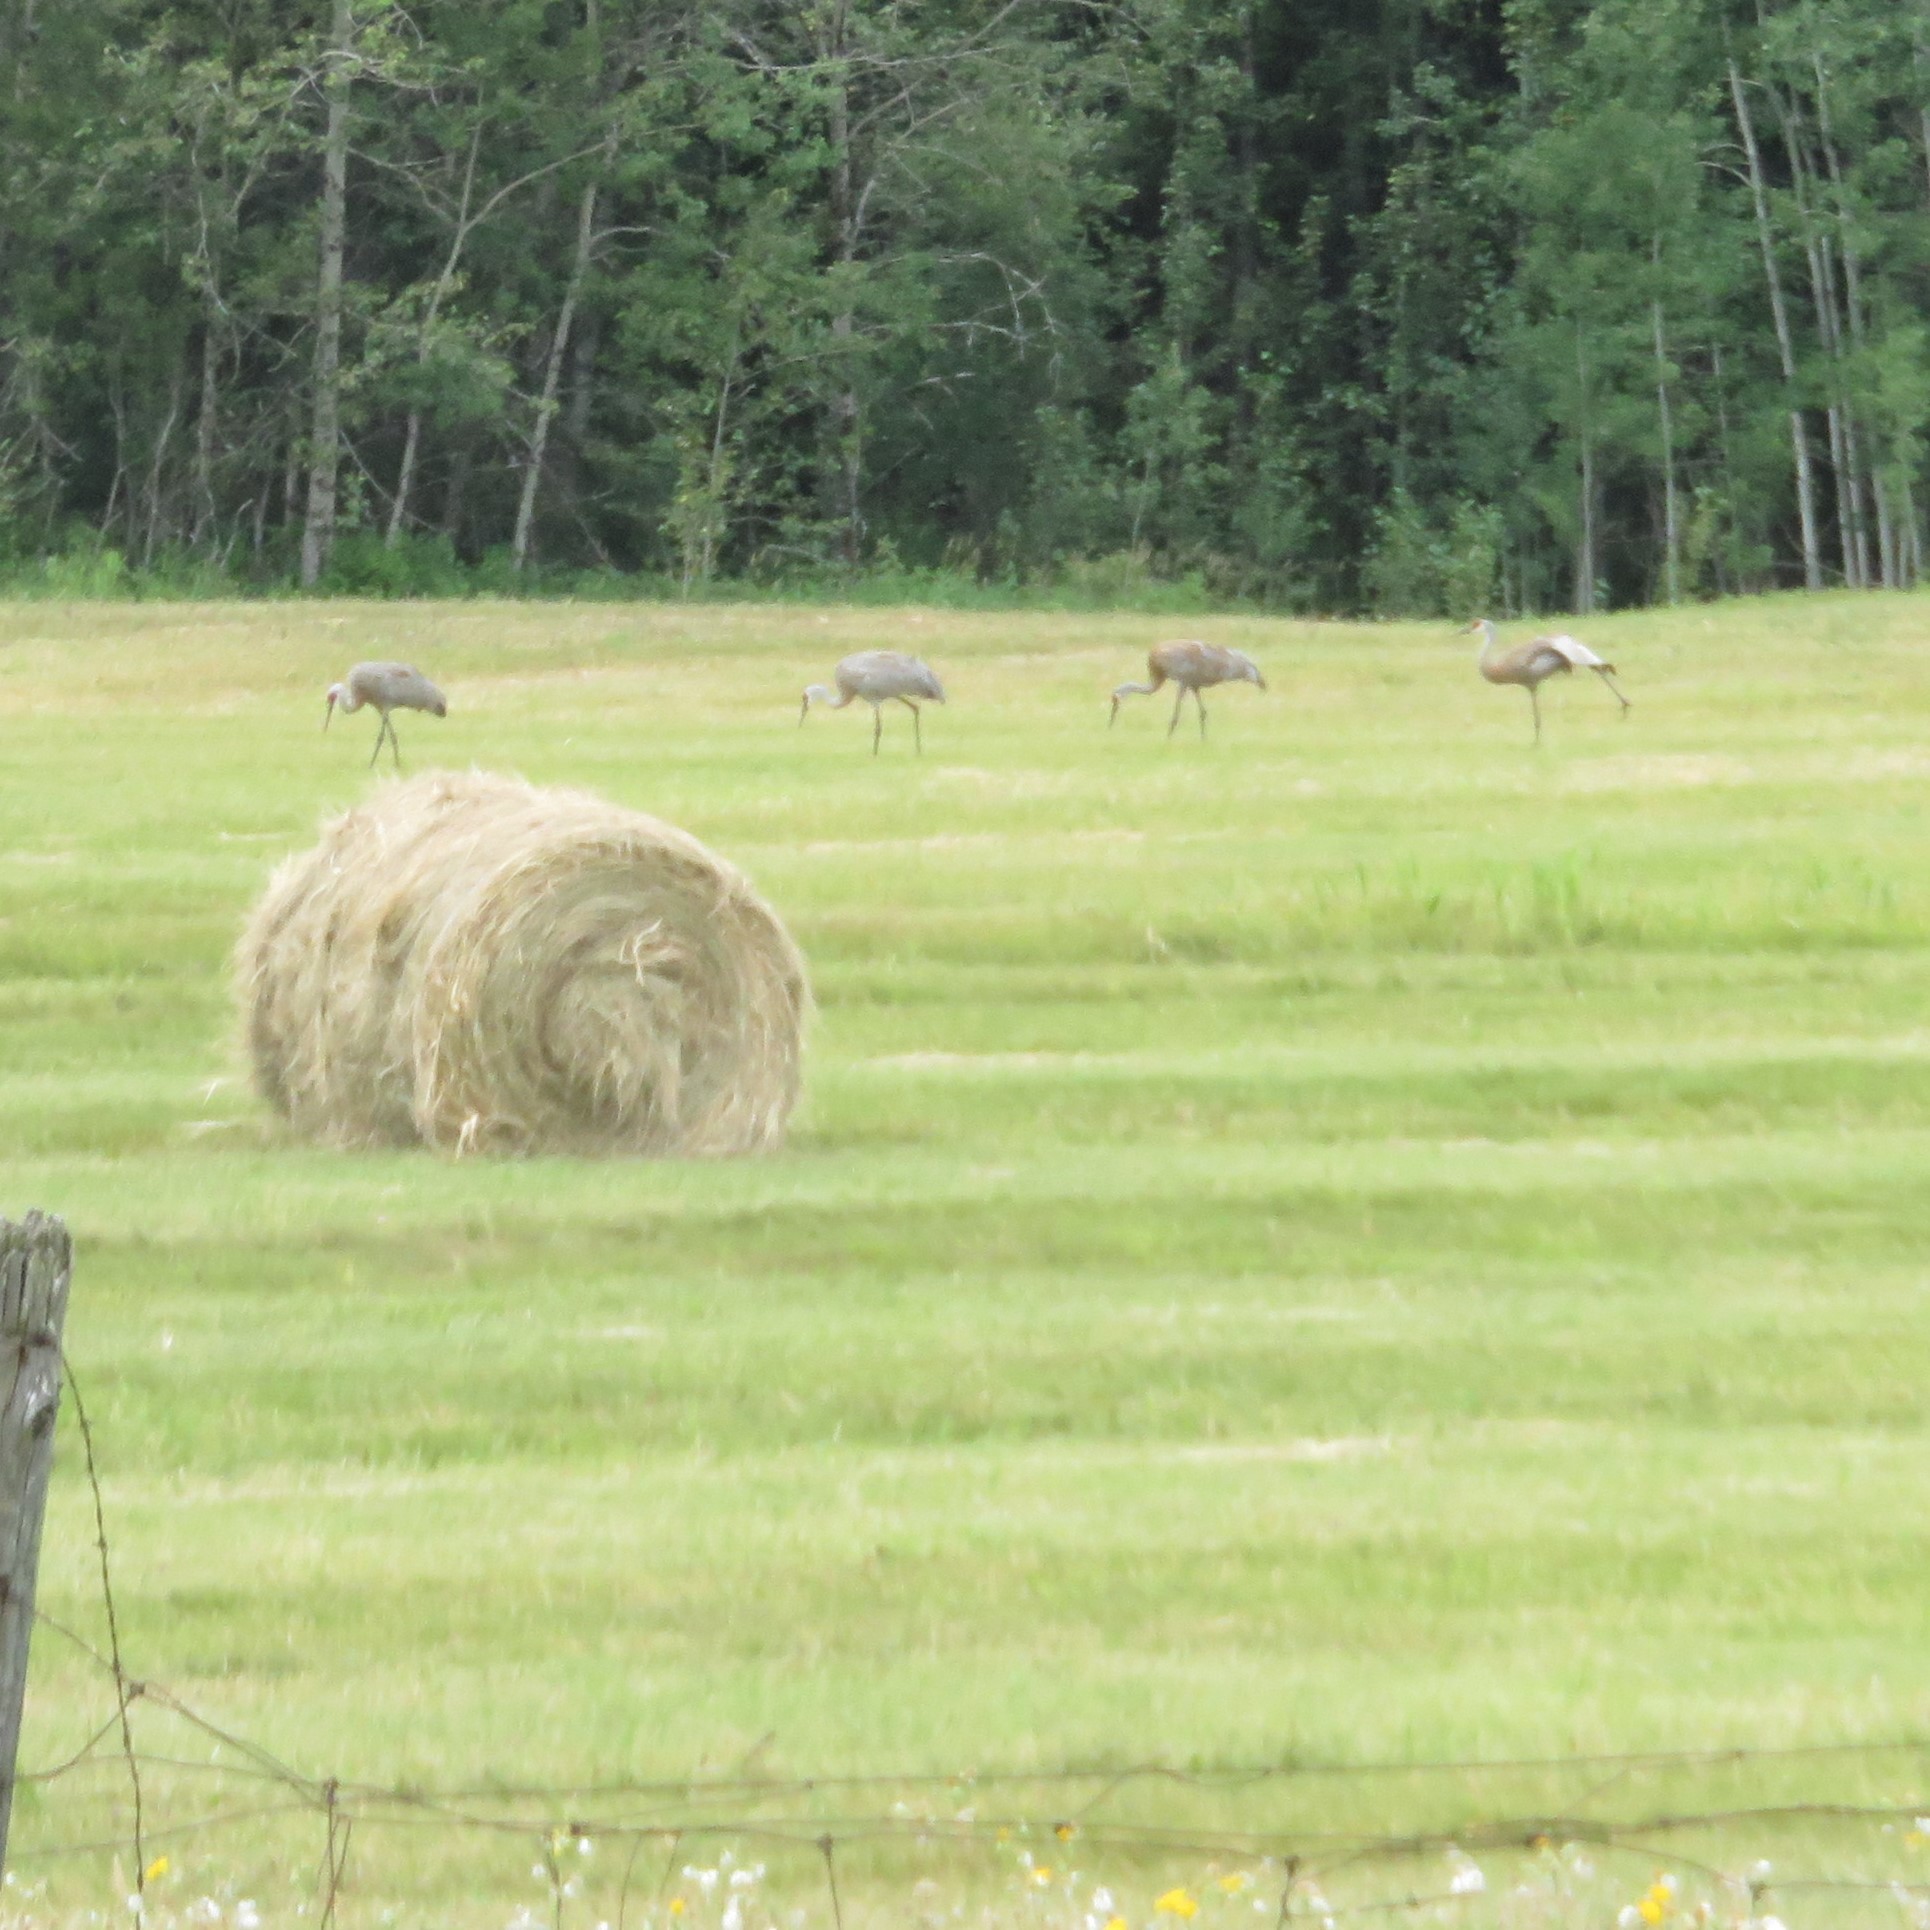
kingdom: Animalia
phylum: Chordata
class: Aves
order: Gruiformes
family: Gruidae
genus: Grus
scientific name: Grus canadensis
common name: Sandhill crane
